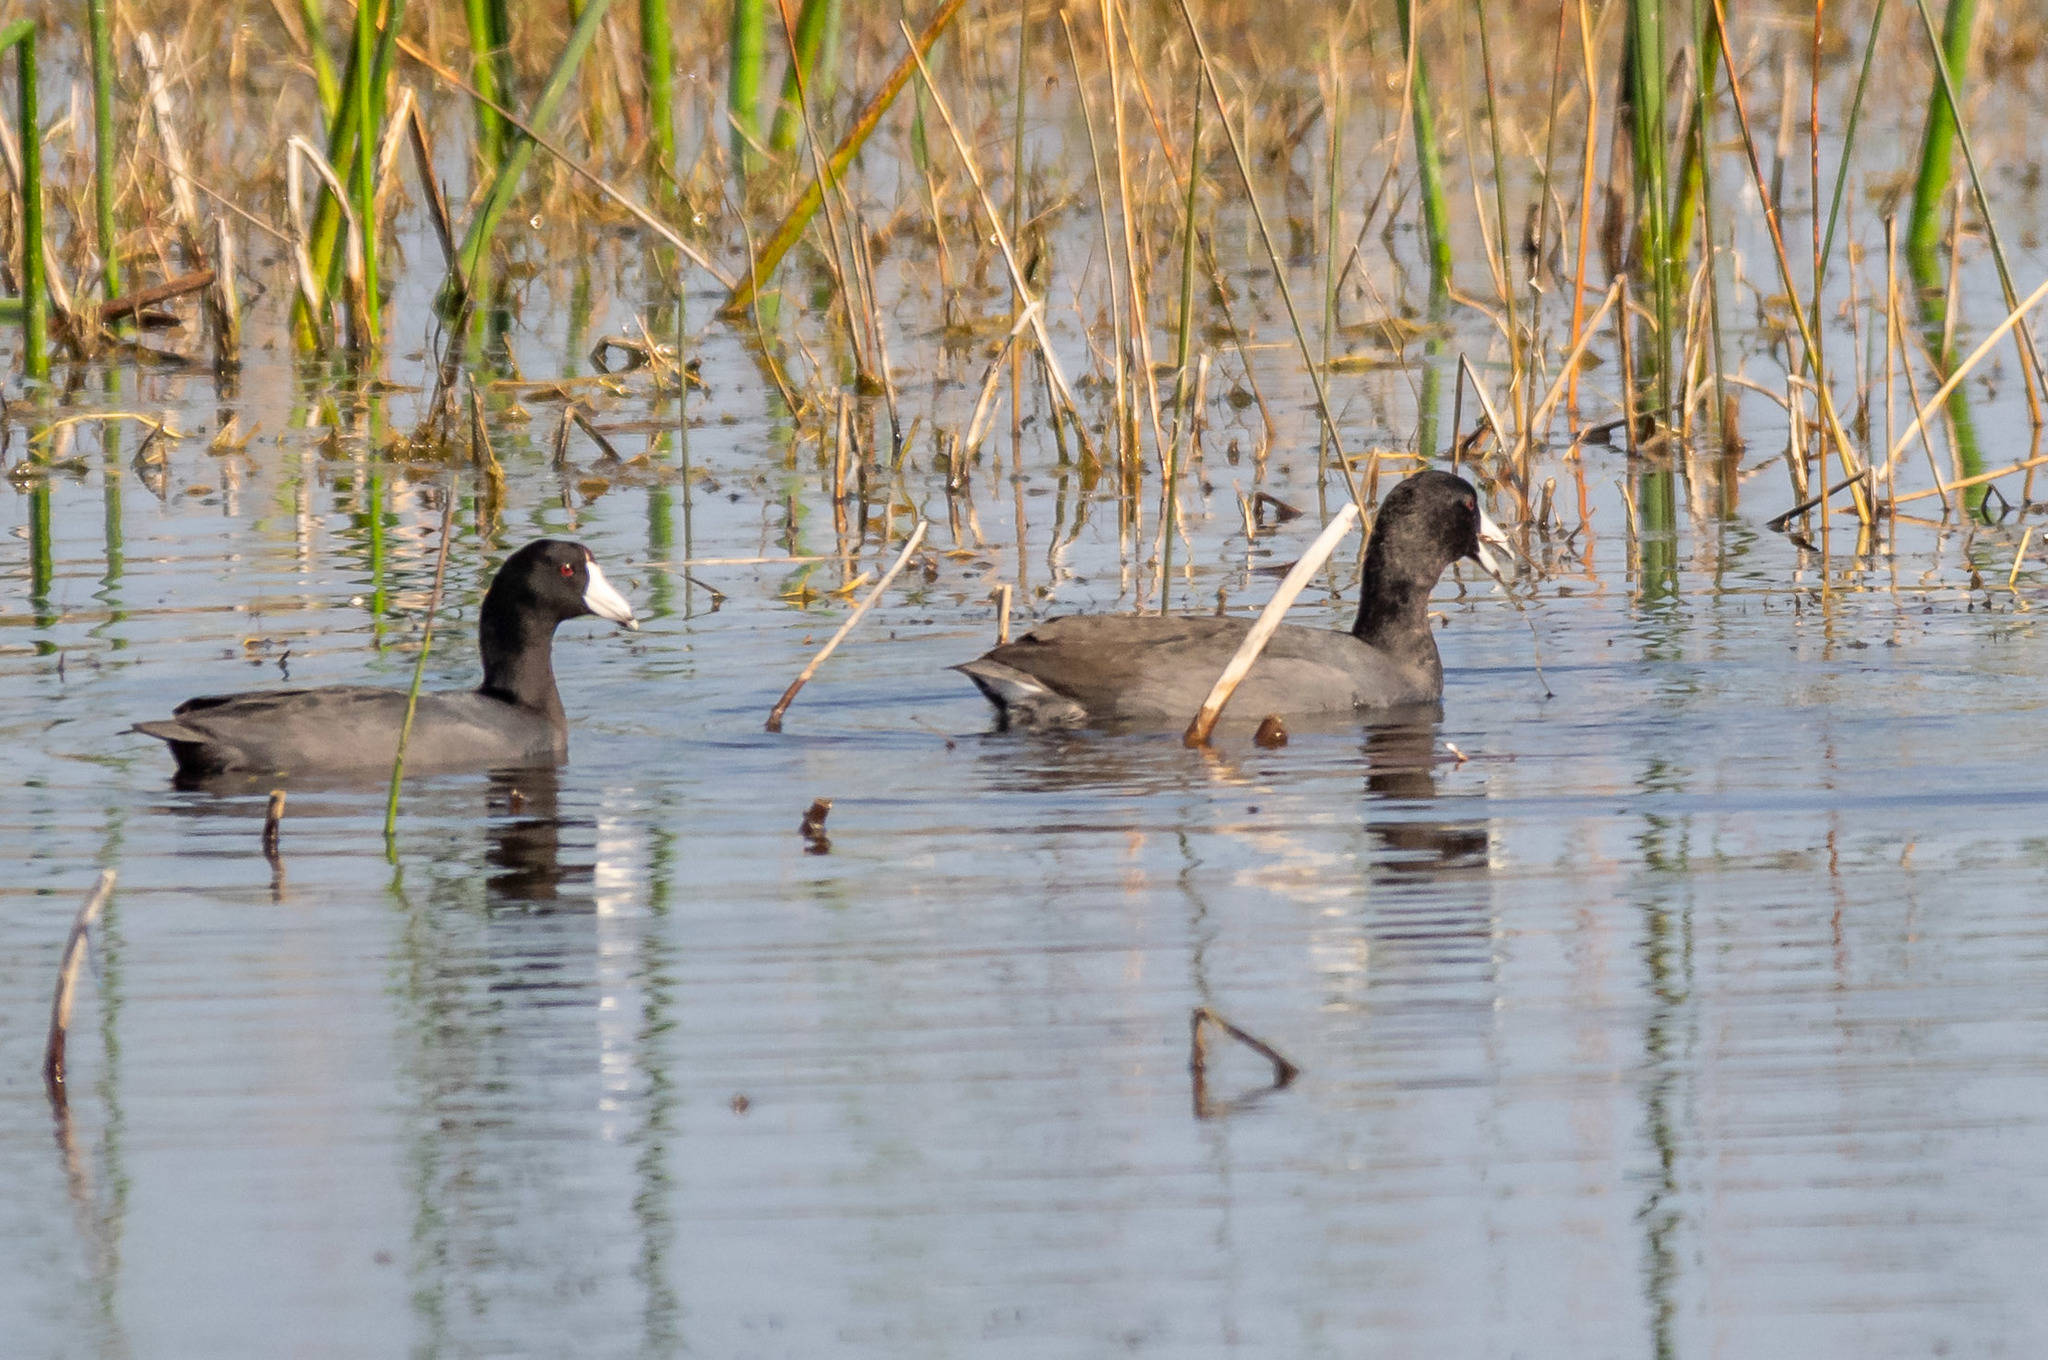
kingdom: Animalia
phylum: Chordata
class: Aves
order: Gruiformes
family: Rallidae
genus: Fulica
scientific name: Fulica americana
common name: American coot
